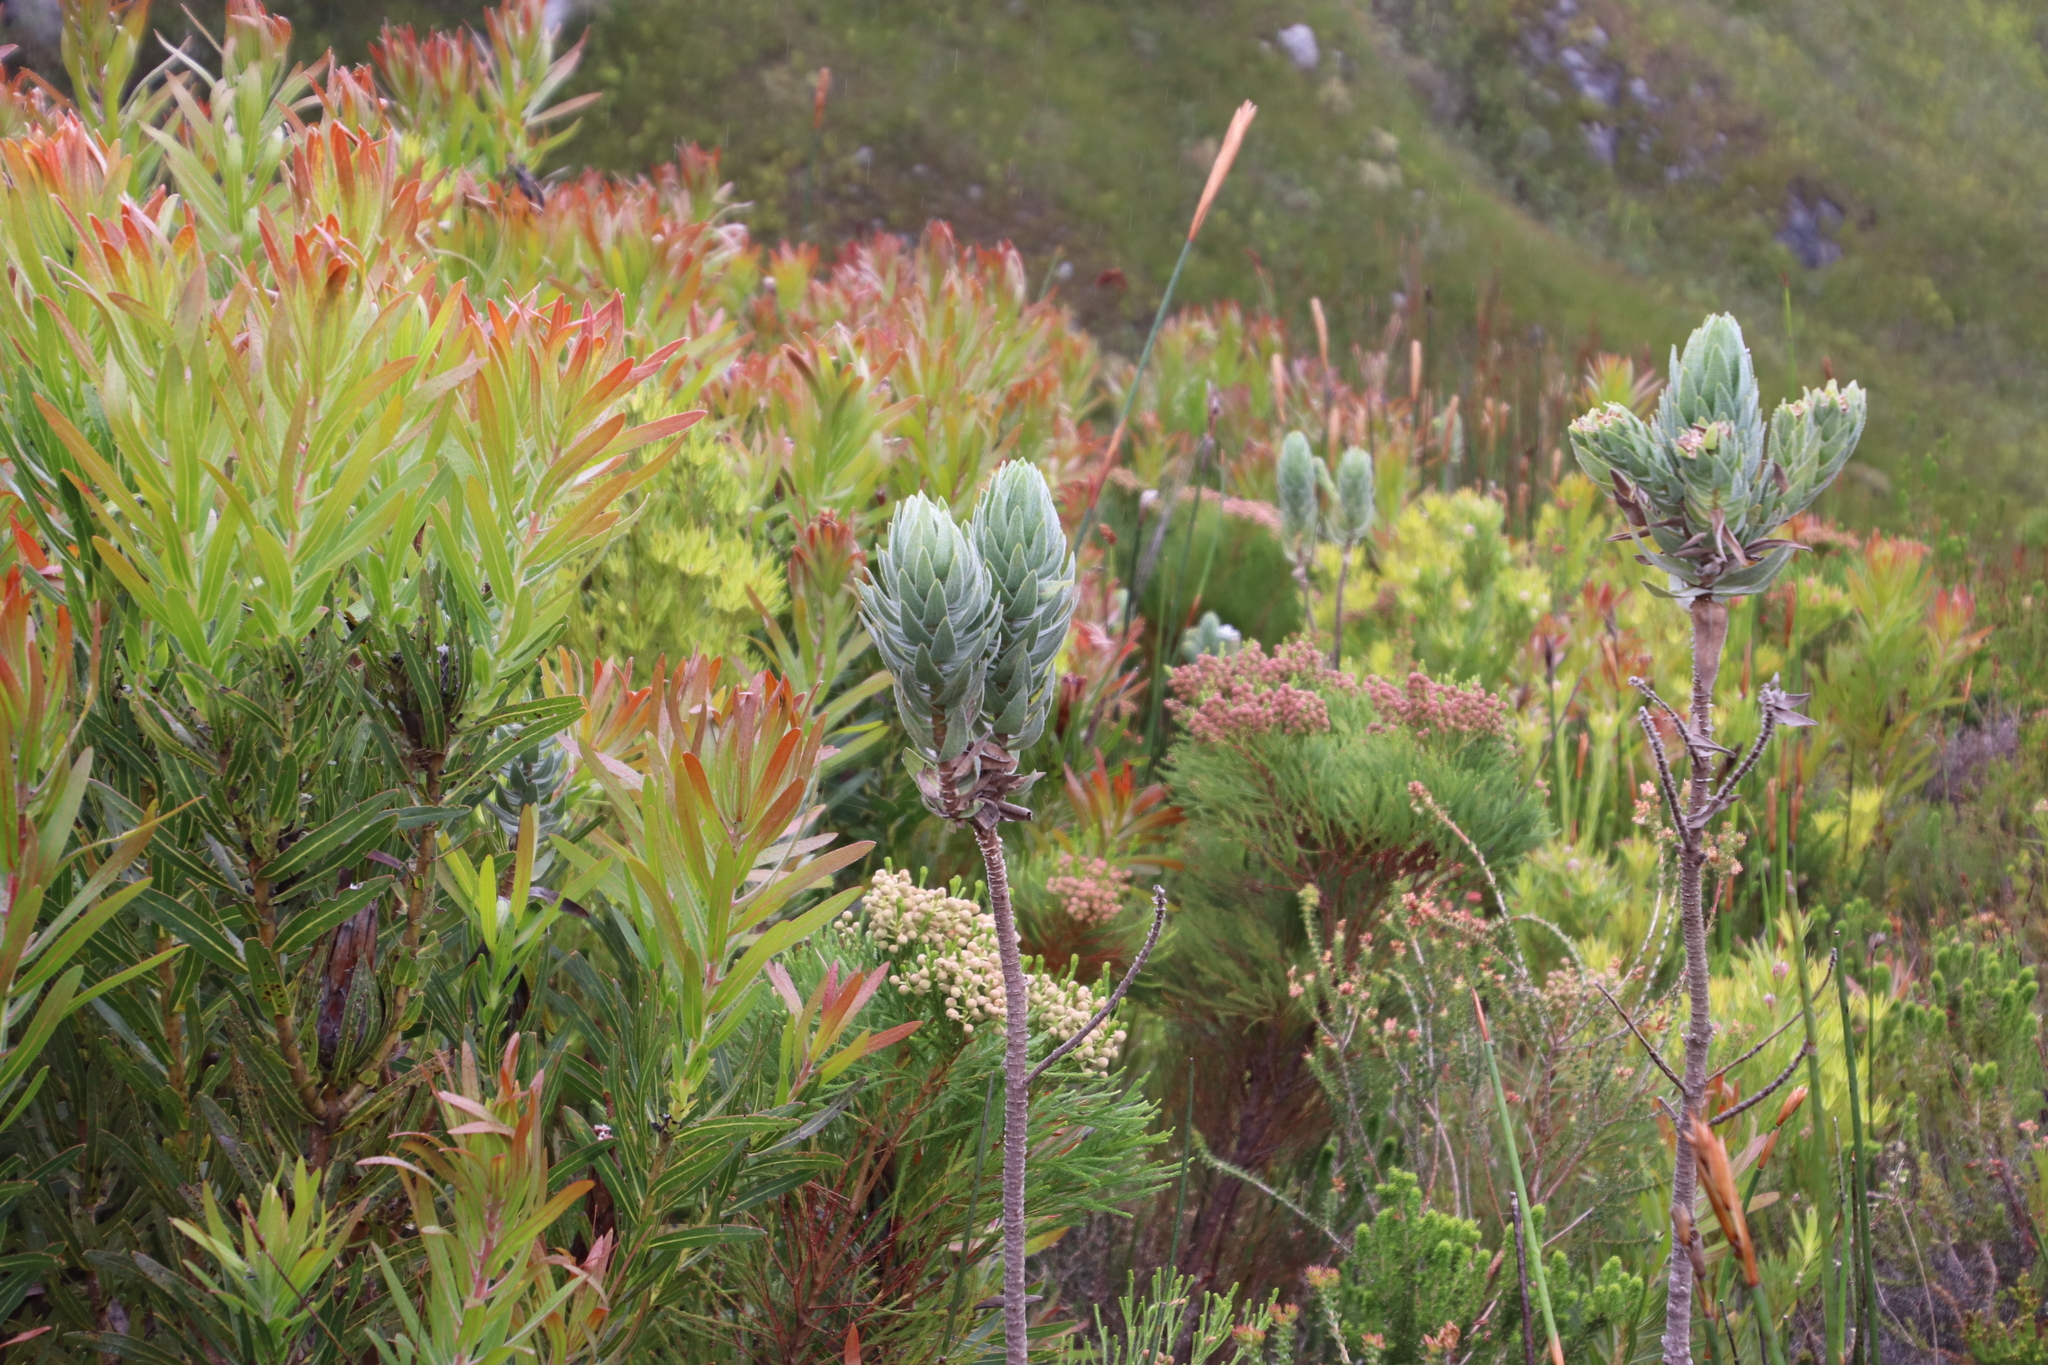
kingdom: Plantae
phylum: Tracheophyta
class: Magnoliopsida
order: Proteales
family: Proteaceae
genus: Protea
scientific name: Protea lepidocarpodendron
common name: Black-bearded protea
